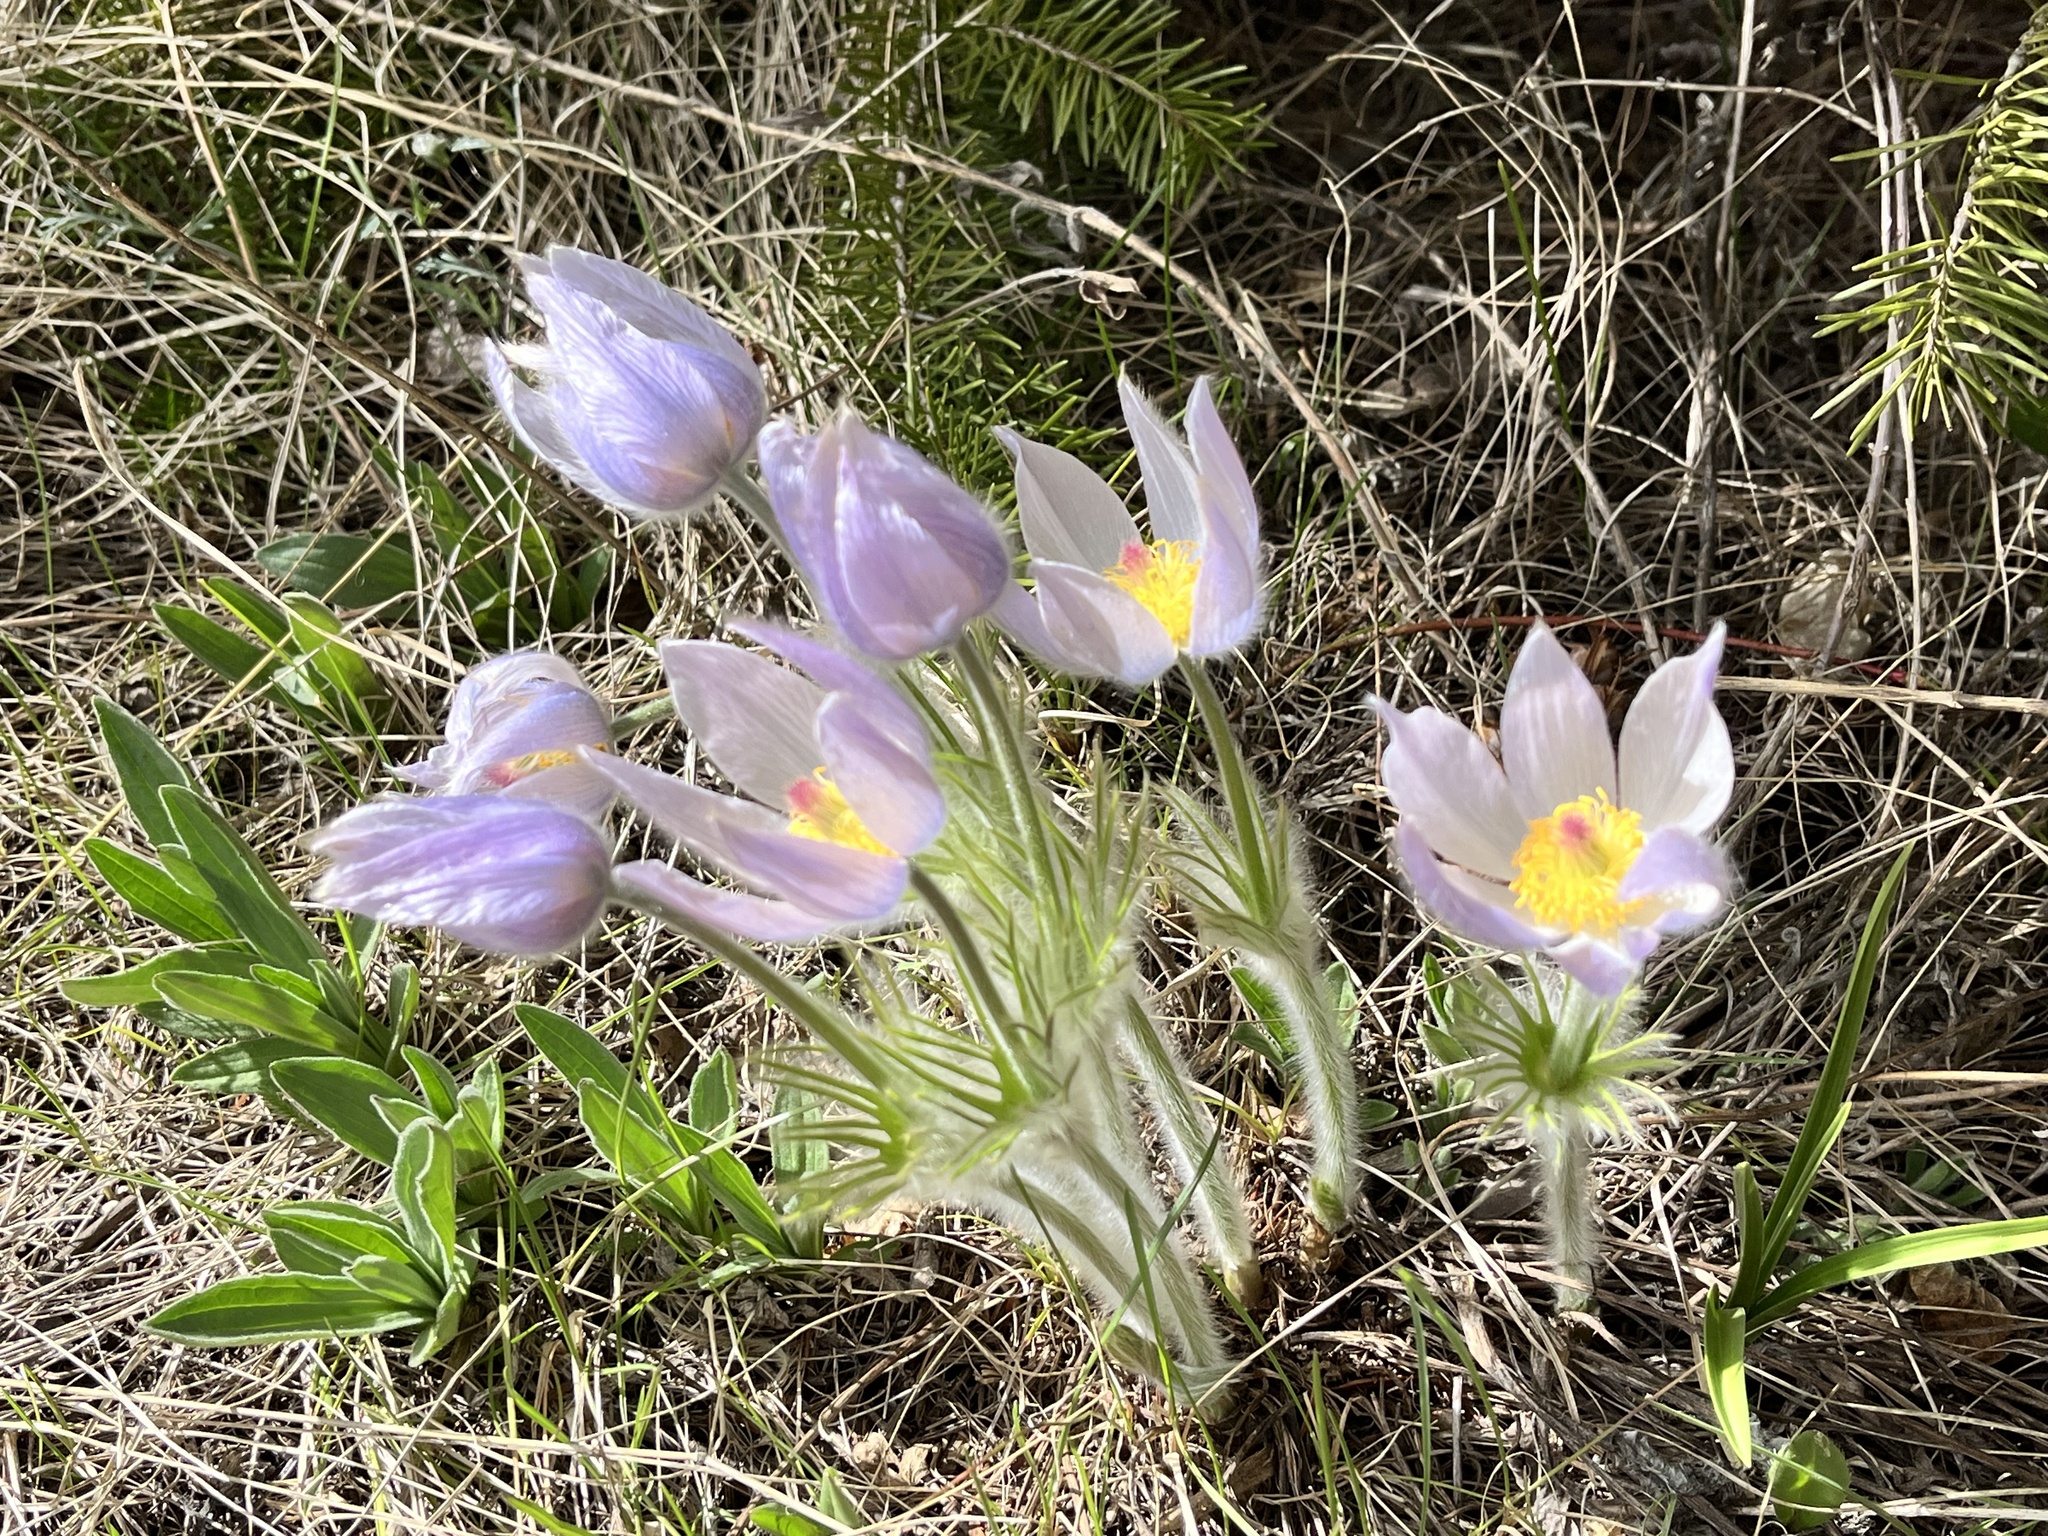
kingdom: Plantae
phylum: Tracheophyta
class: Magnoliopsida
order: Ranunculales
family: Ranunculaceae
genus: Pulsatilla
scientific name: Pulsatilla nuttalliana
